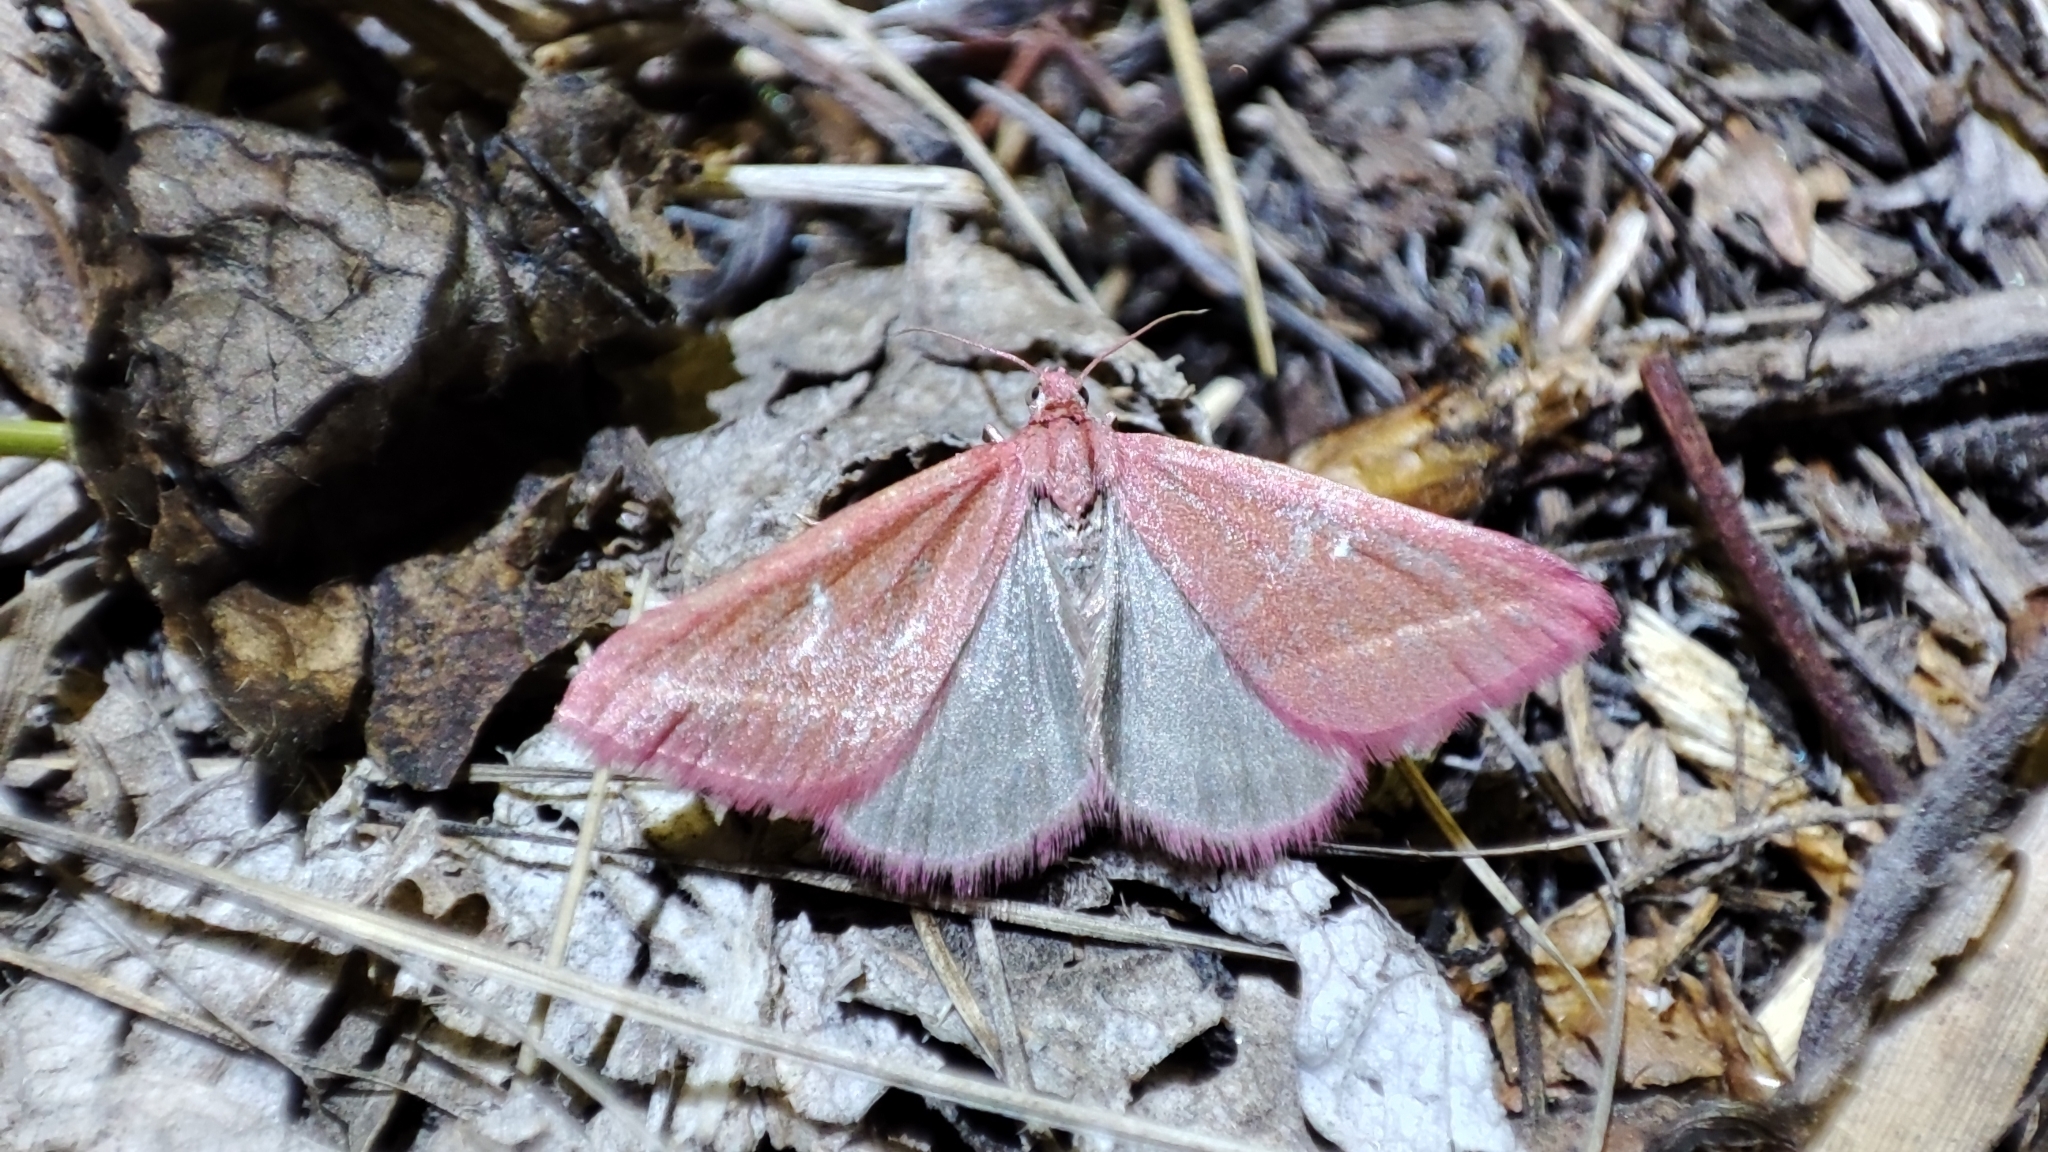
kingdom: Animalia
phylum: Arthropoda
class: Insecta
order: Lepidoptera
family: Geometridae
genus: Casilda
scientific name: Casilda antophilaria
